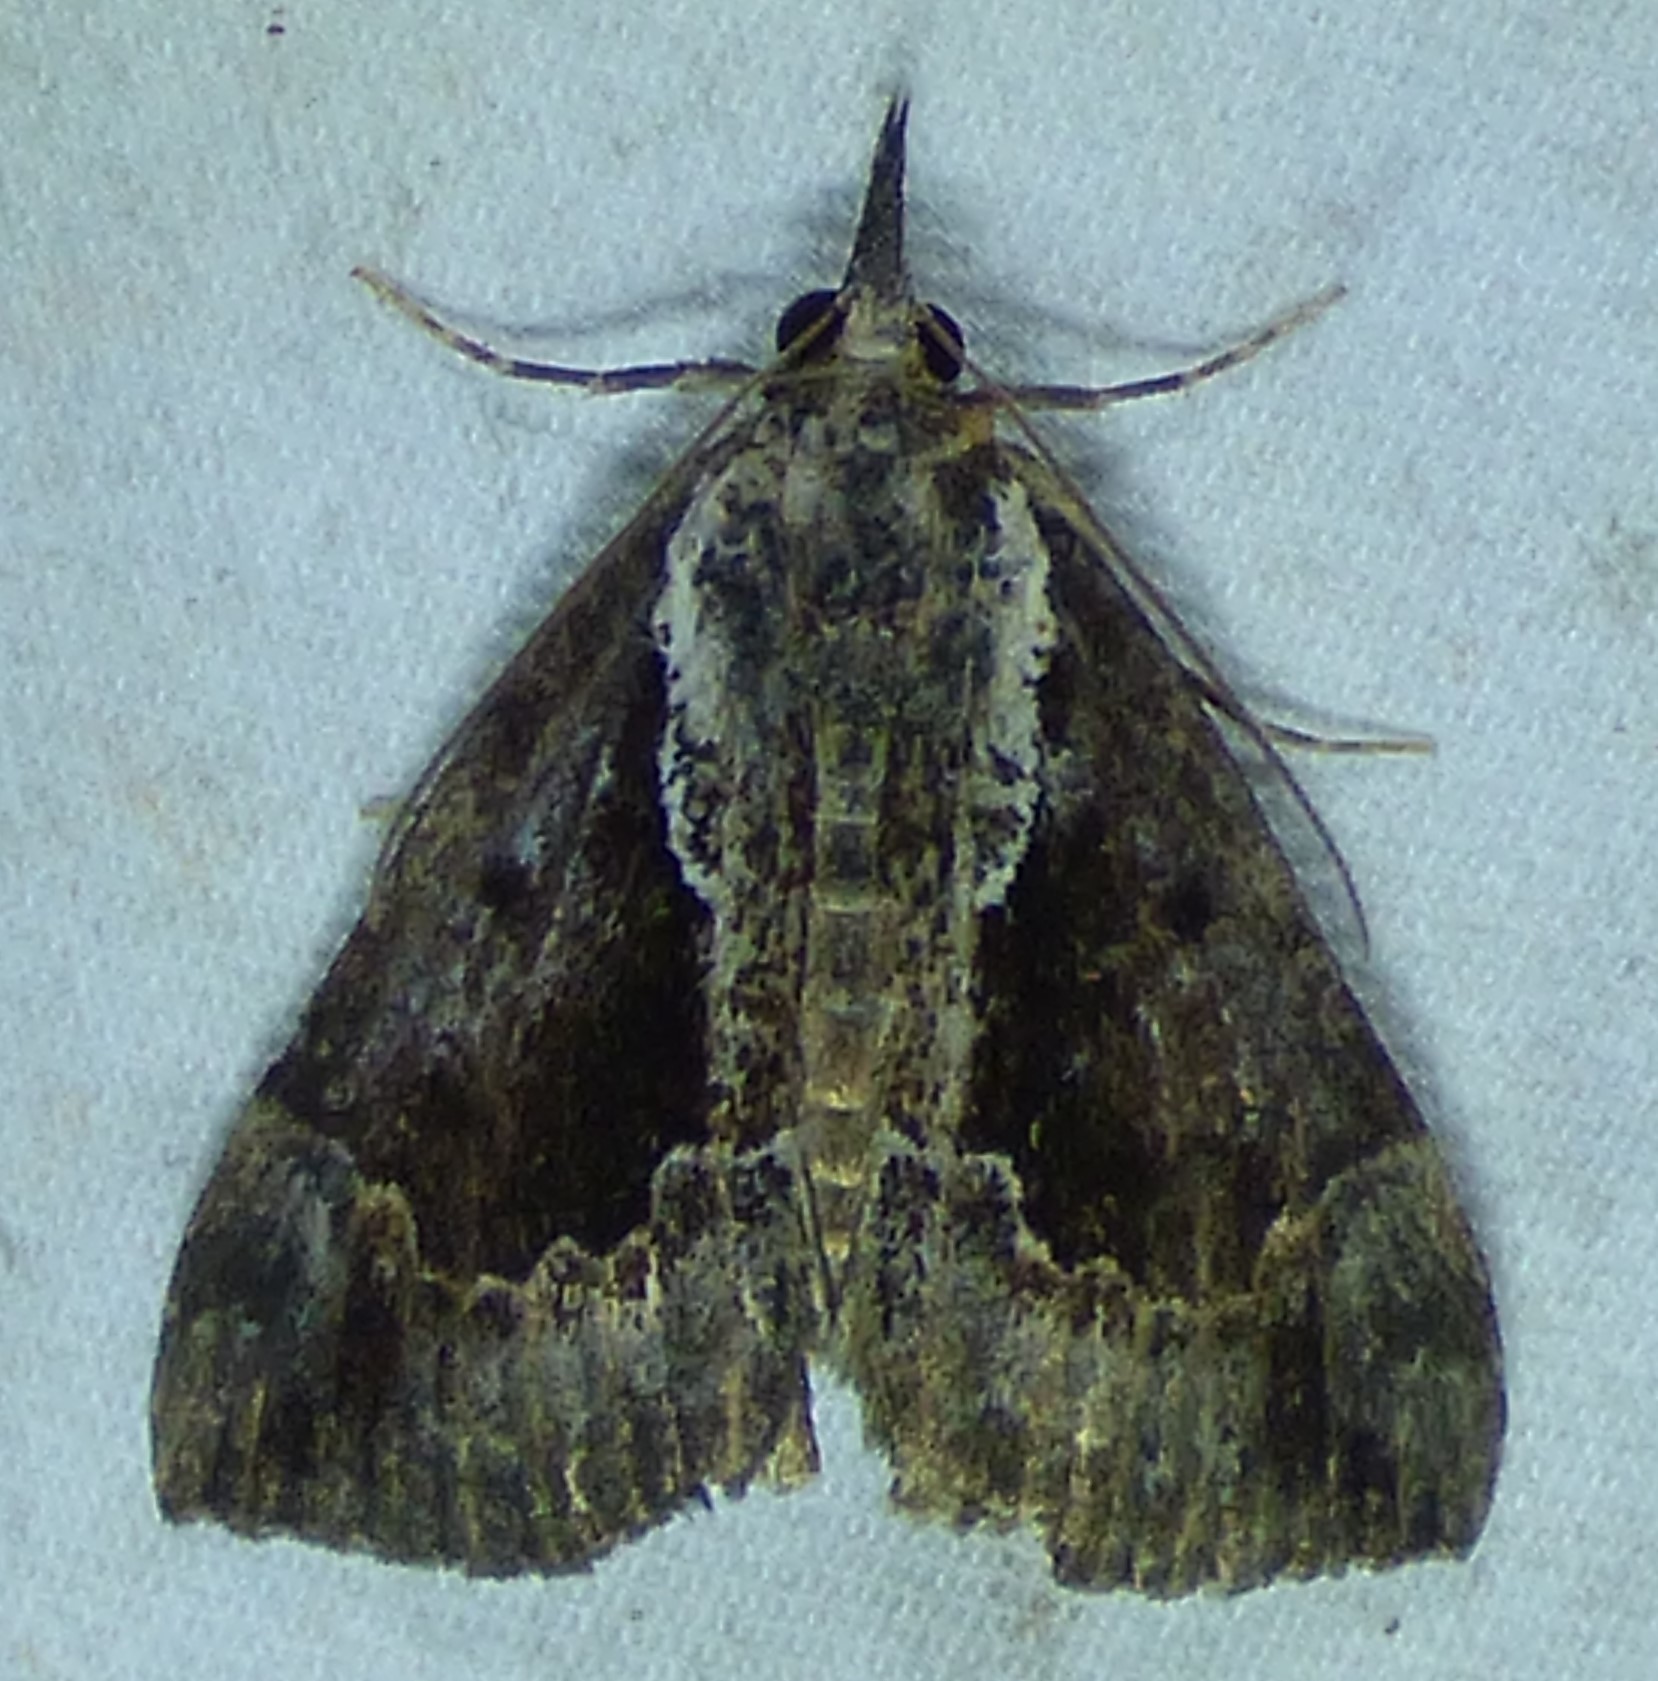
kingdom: Animalia
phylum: Arthropoda
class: Insecta
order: Lepidoptera
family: Erebidae
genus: Hypena
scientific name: Hypena baltimoralis
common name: Baltimore snout
